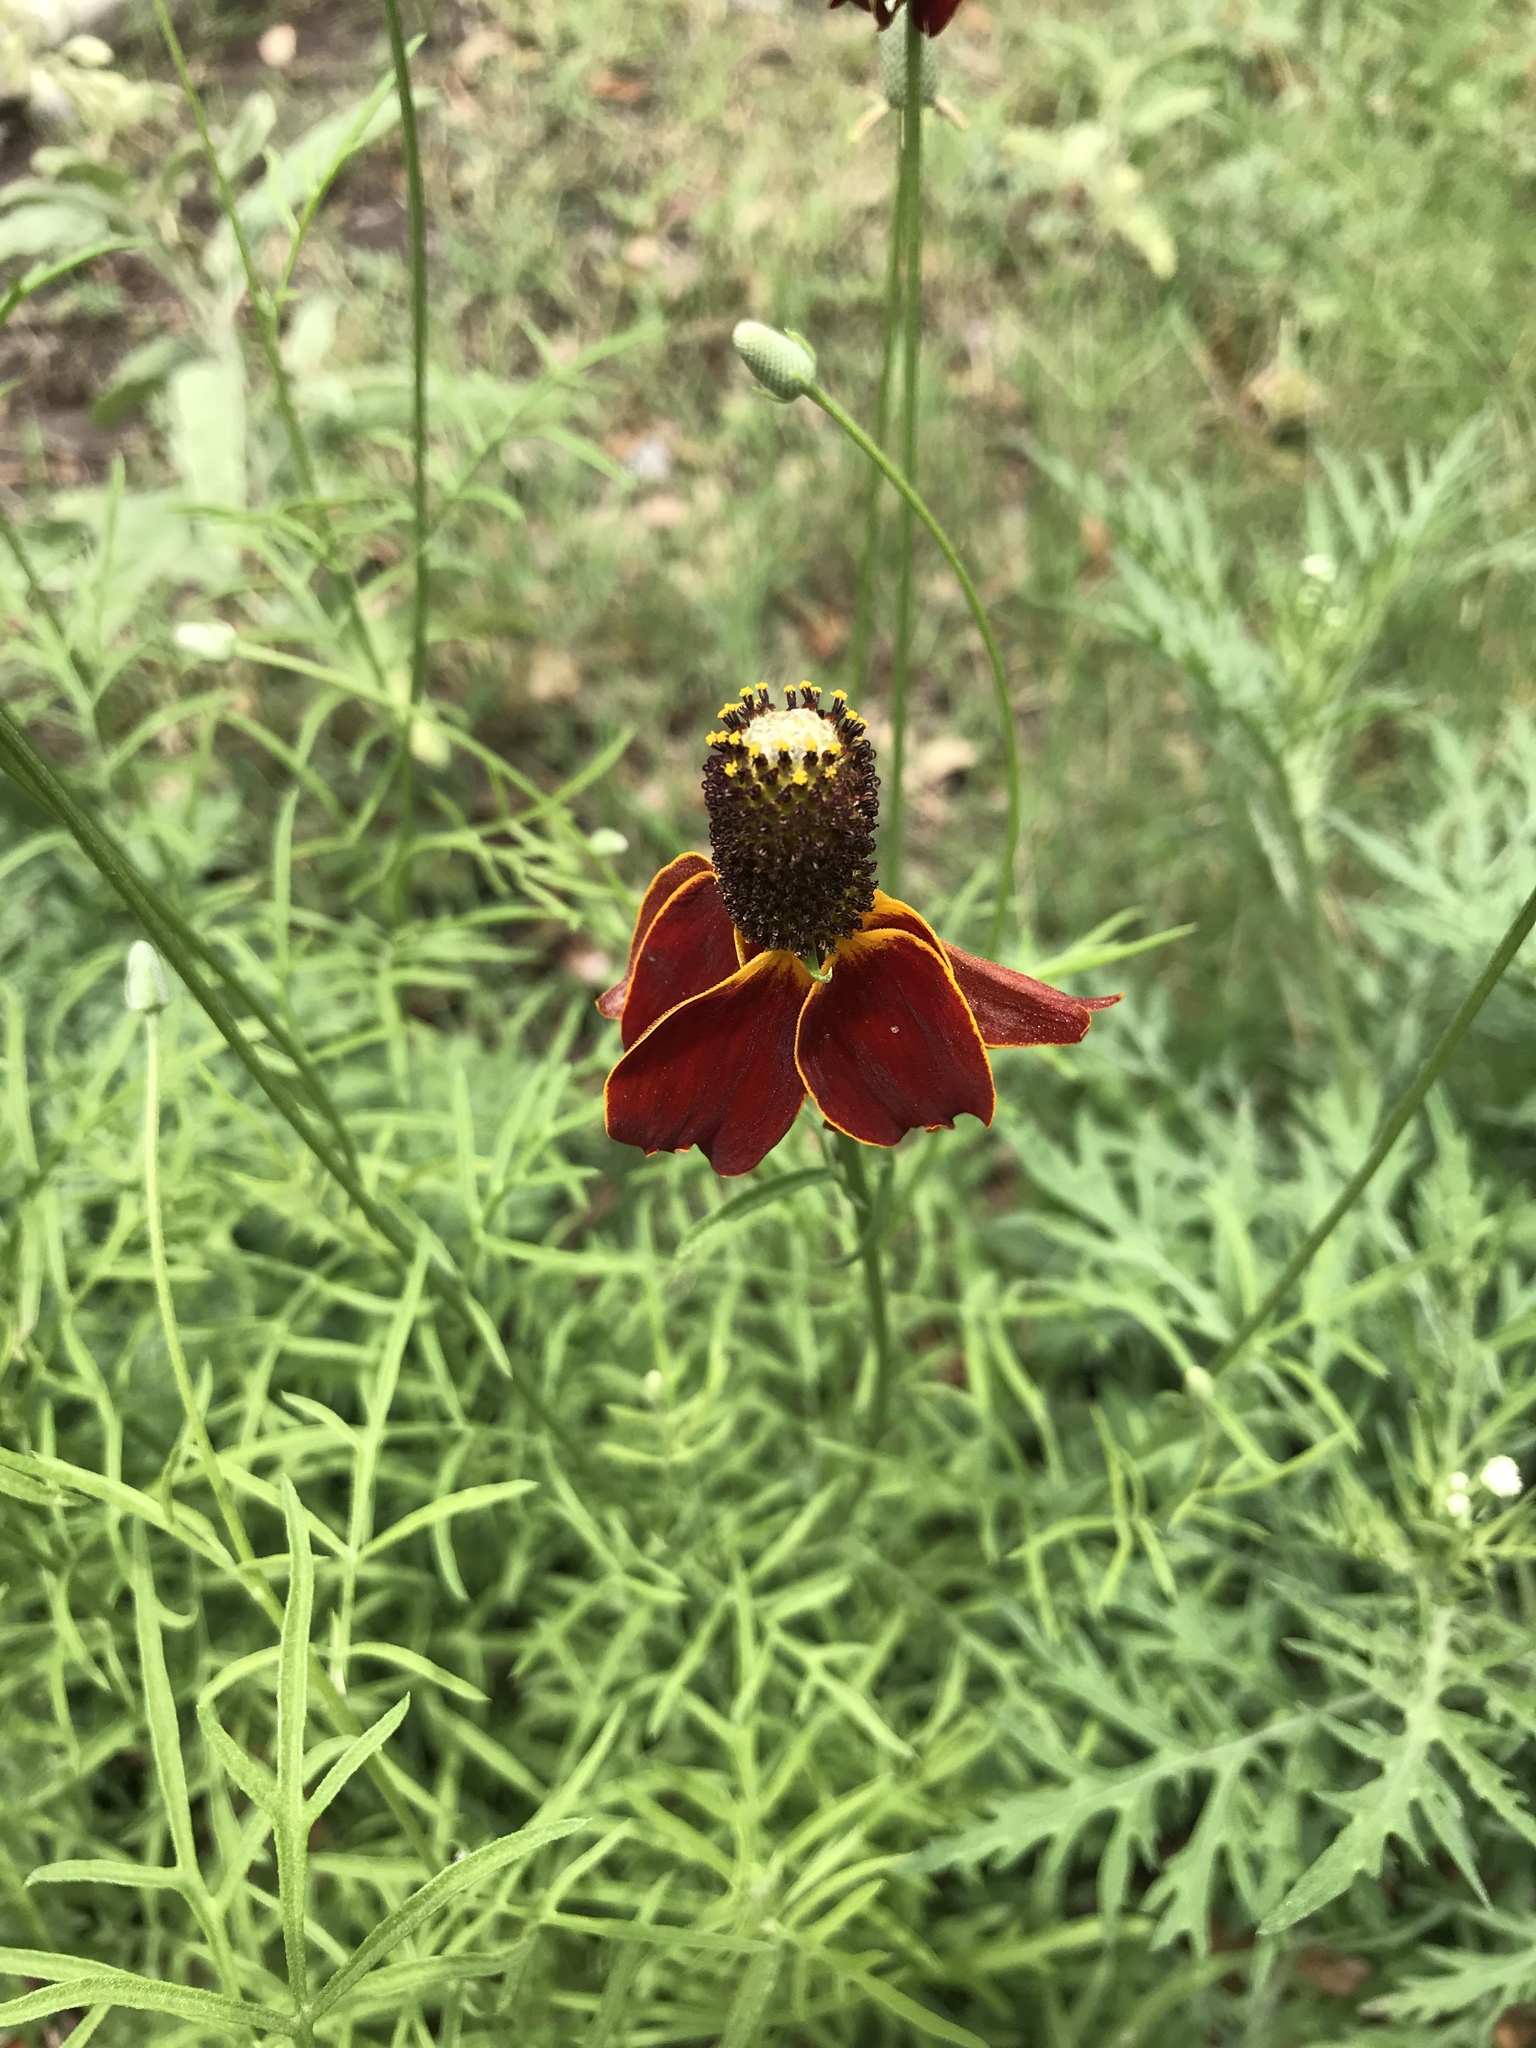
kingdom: Plantae
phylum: Tracheophyta
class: Magnoliopsida
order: Asterales
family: Asteraceae
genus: Ratibida
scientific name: Ratibida columnifera
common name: Prairie coneflower
